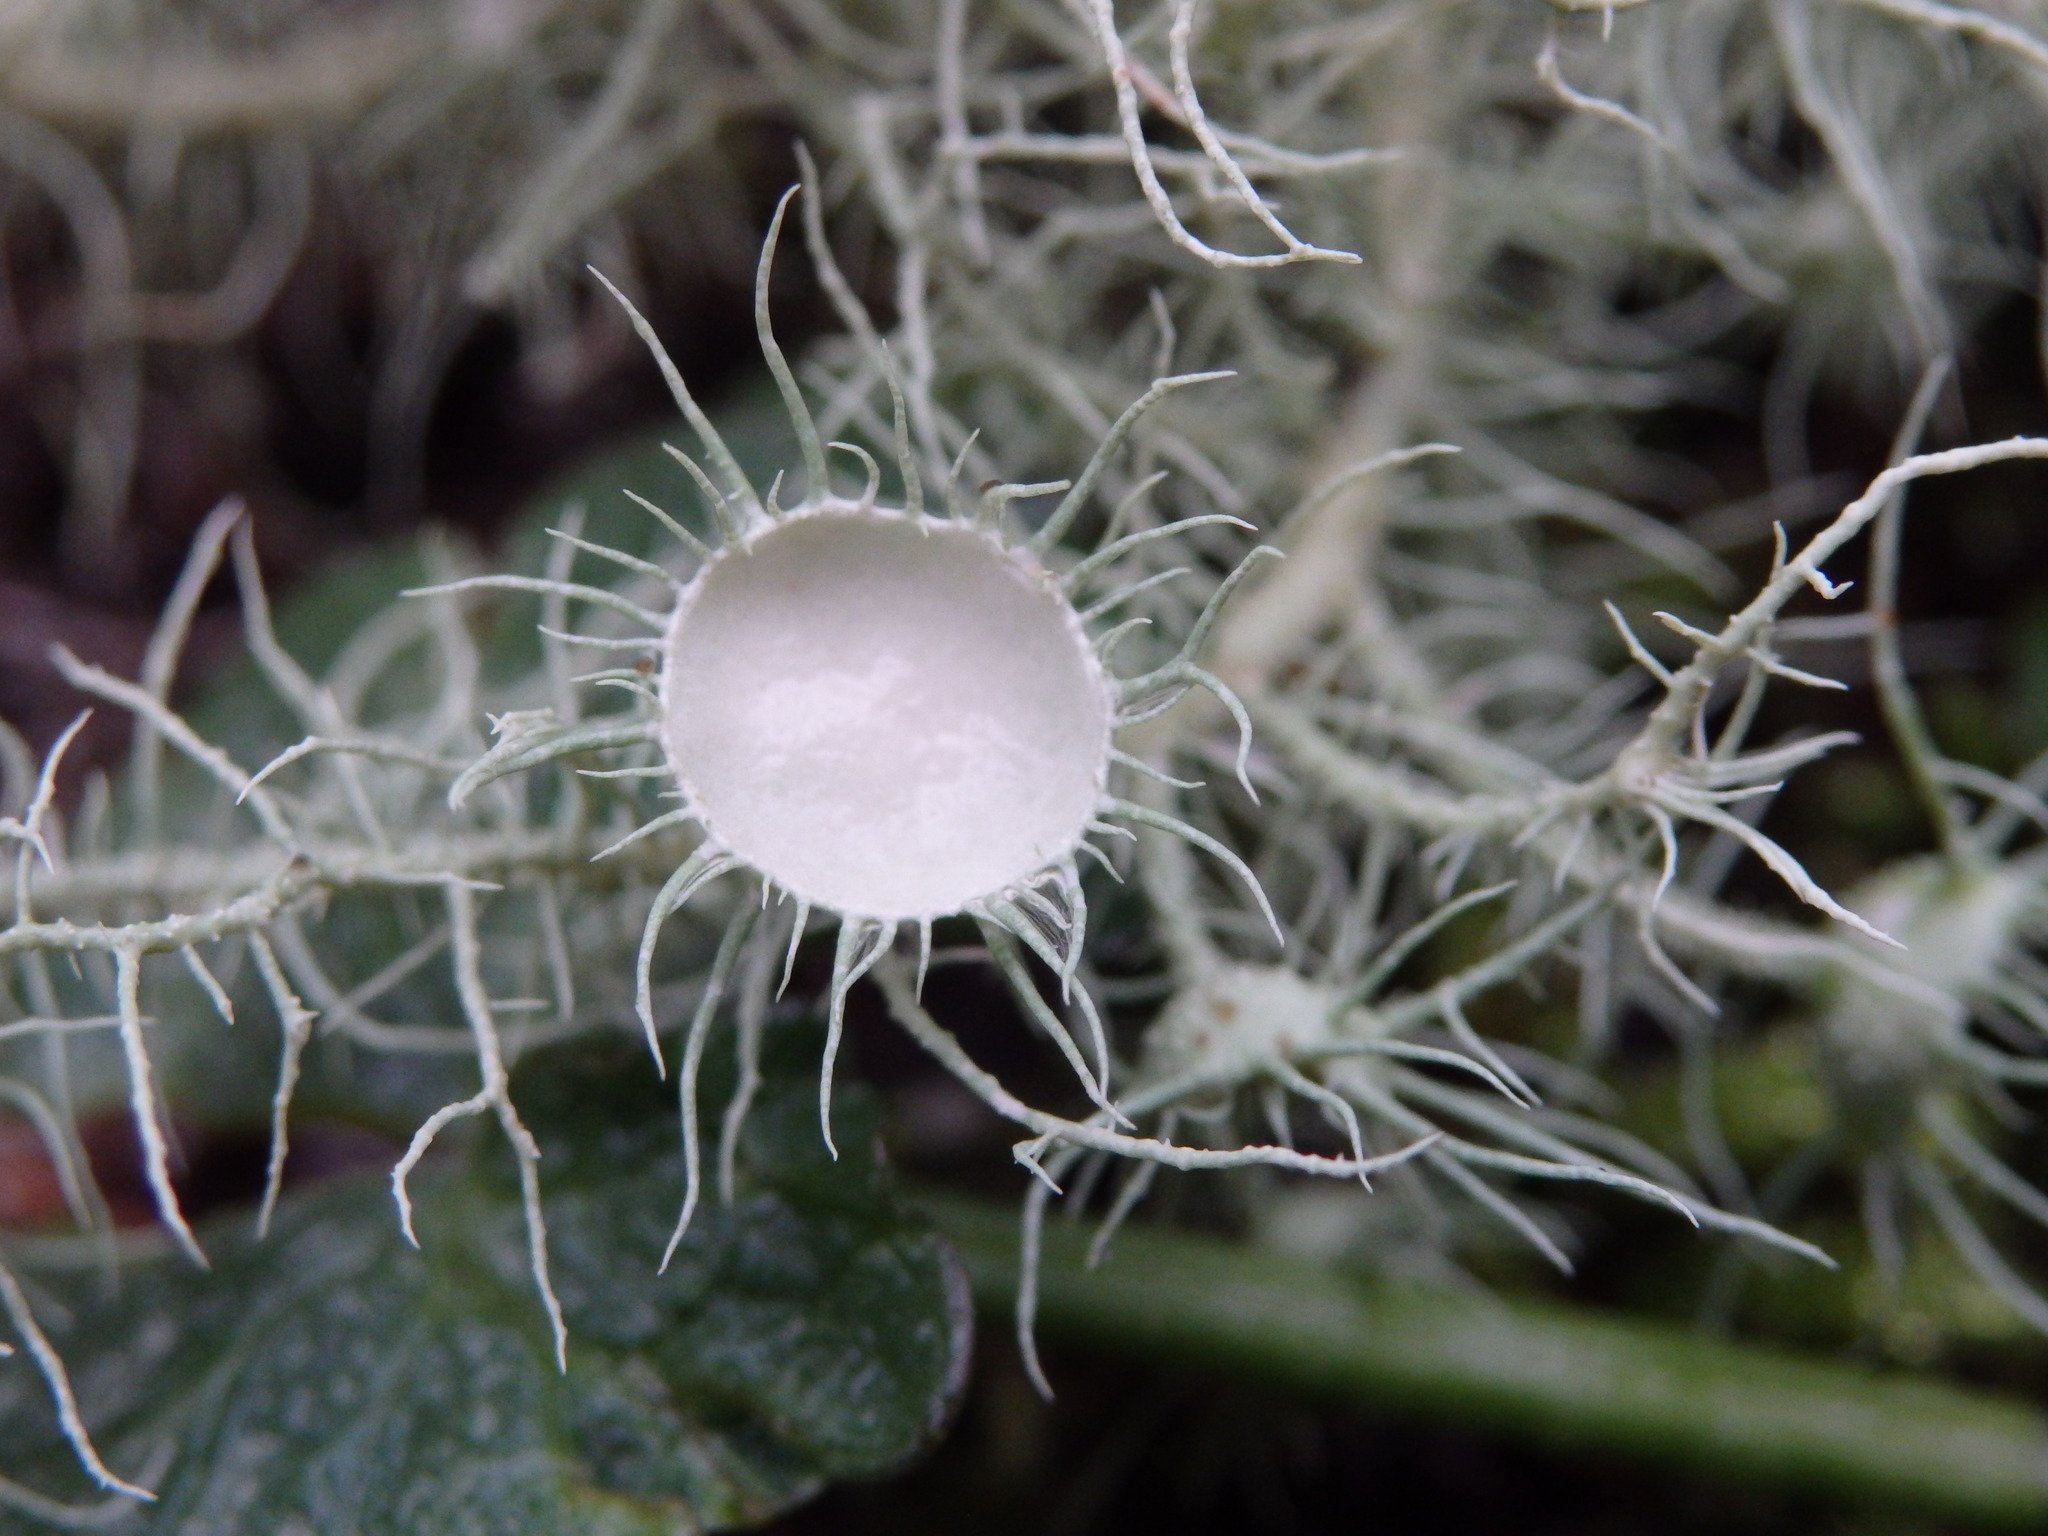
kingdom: Fungi
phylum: Ascomycota
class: Lecanoromycetes
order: Lecanorales
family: Parmeliaceae
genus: Usnea
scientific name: Usnea florida
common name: Witches' whiskers lichen
